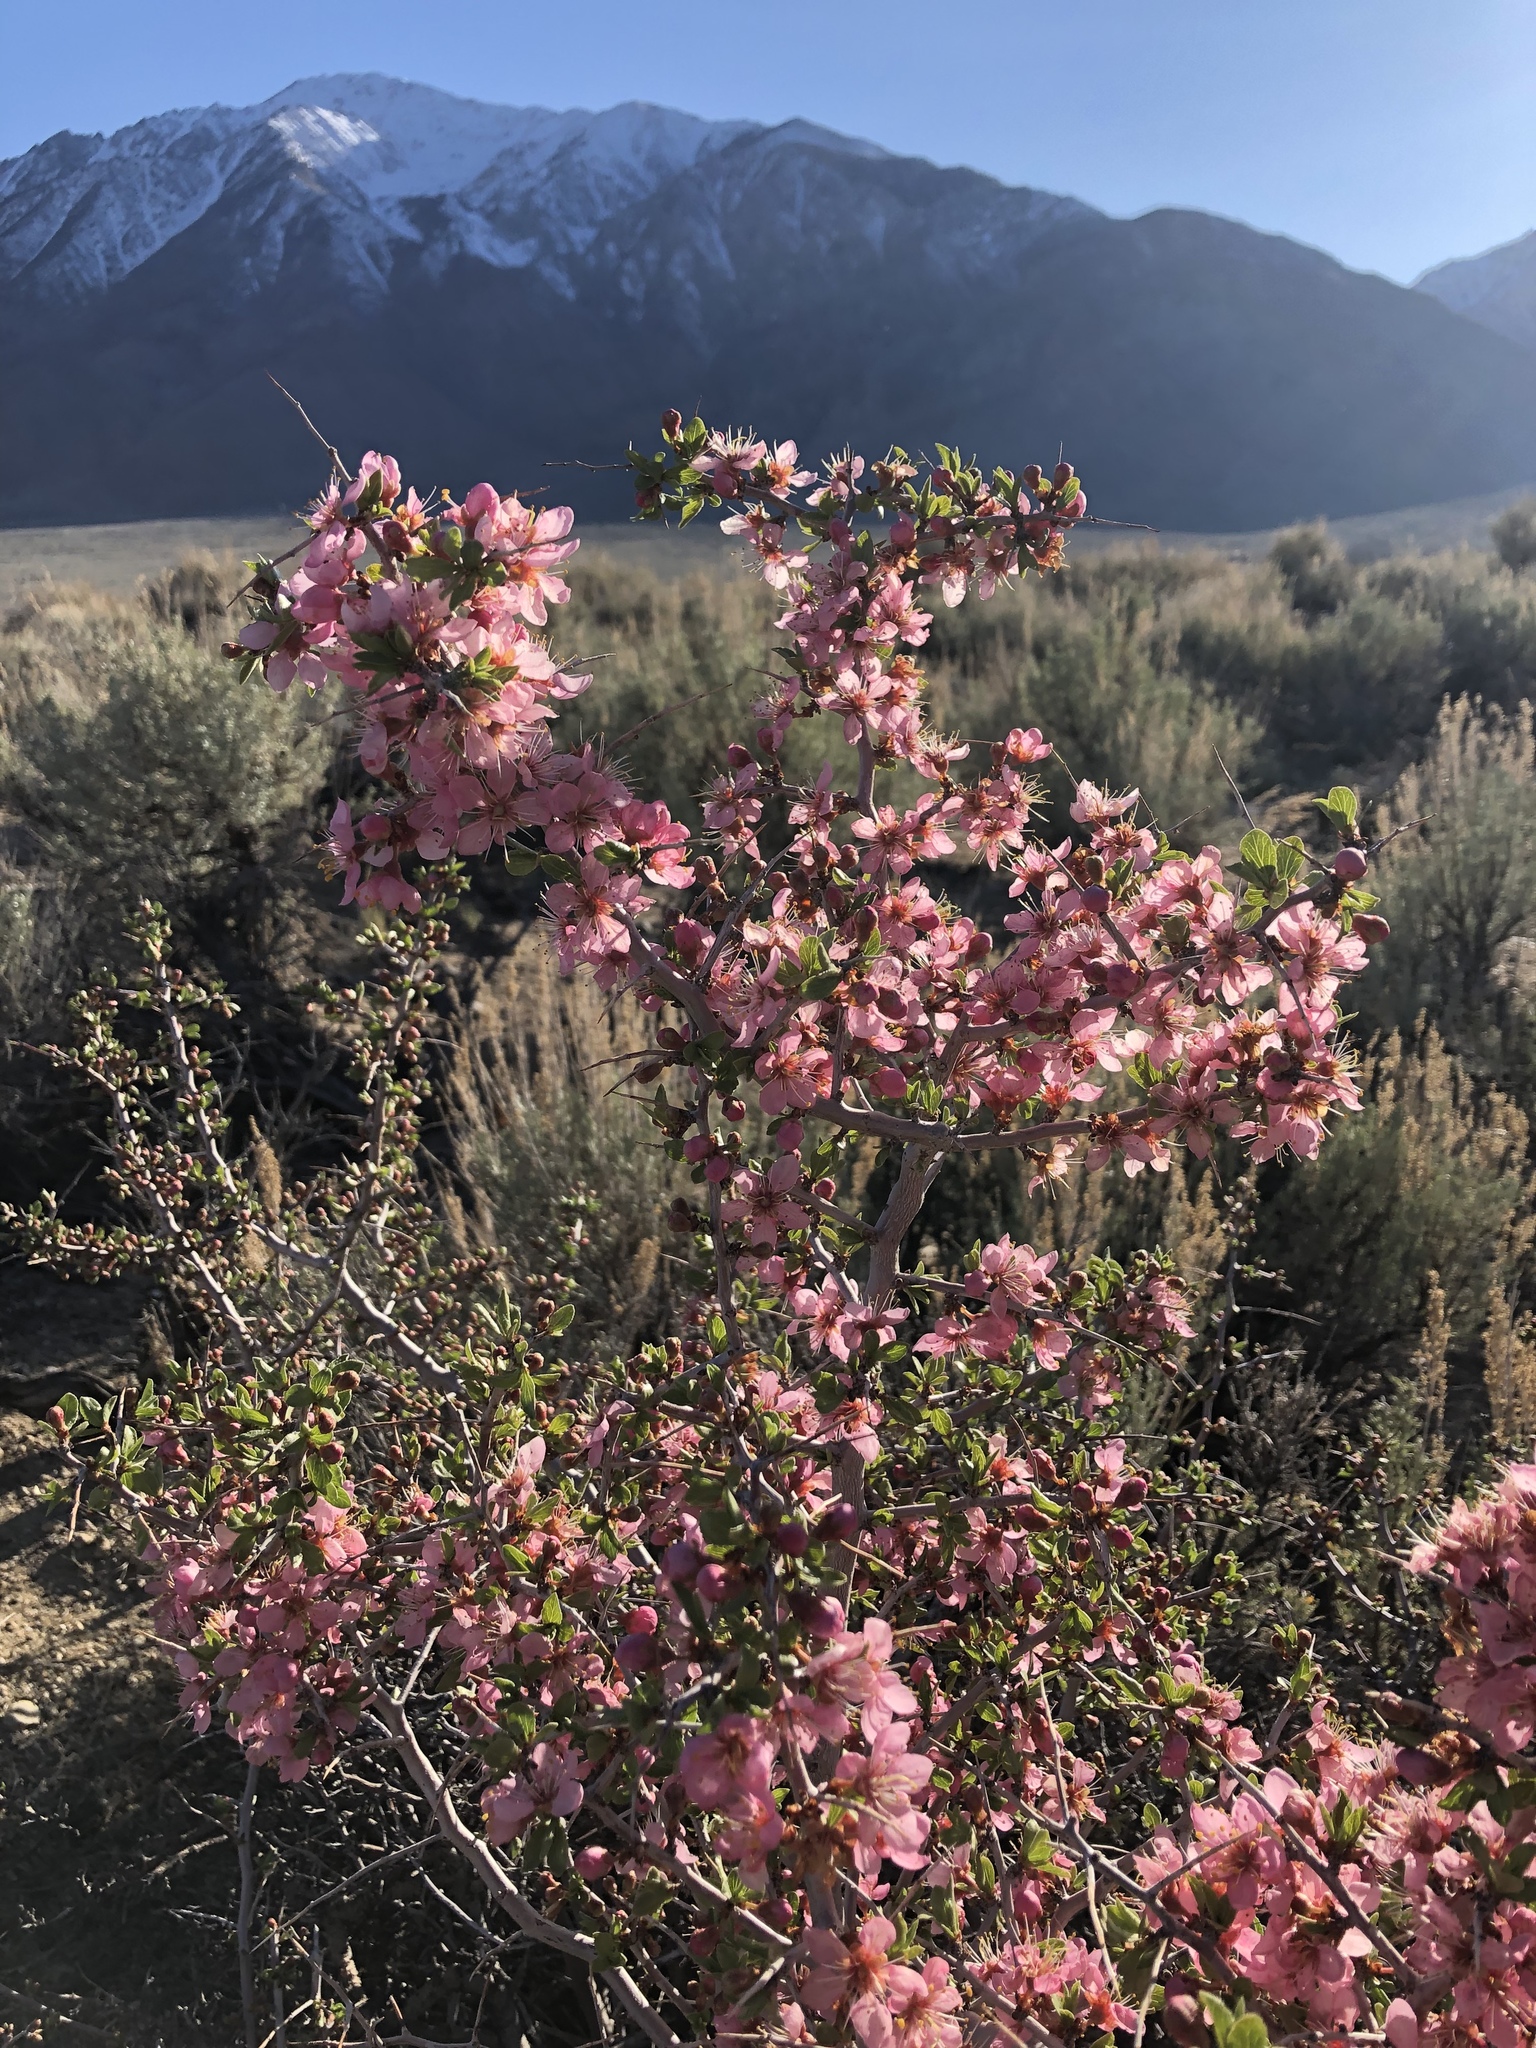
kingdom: Plantae
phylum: Tracheophyta
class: Magnoliopsida
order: Rosales
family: Rosaceae
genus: Prunus
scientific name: Prunus andersonii
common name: Desert peach
